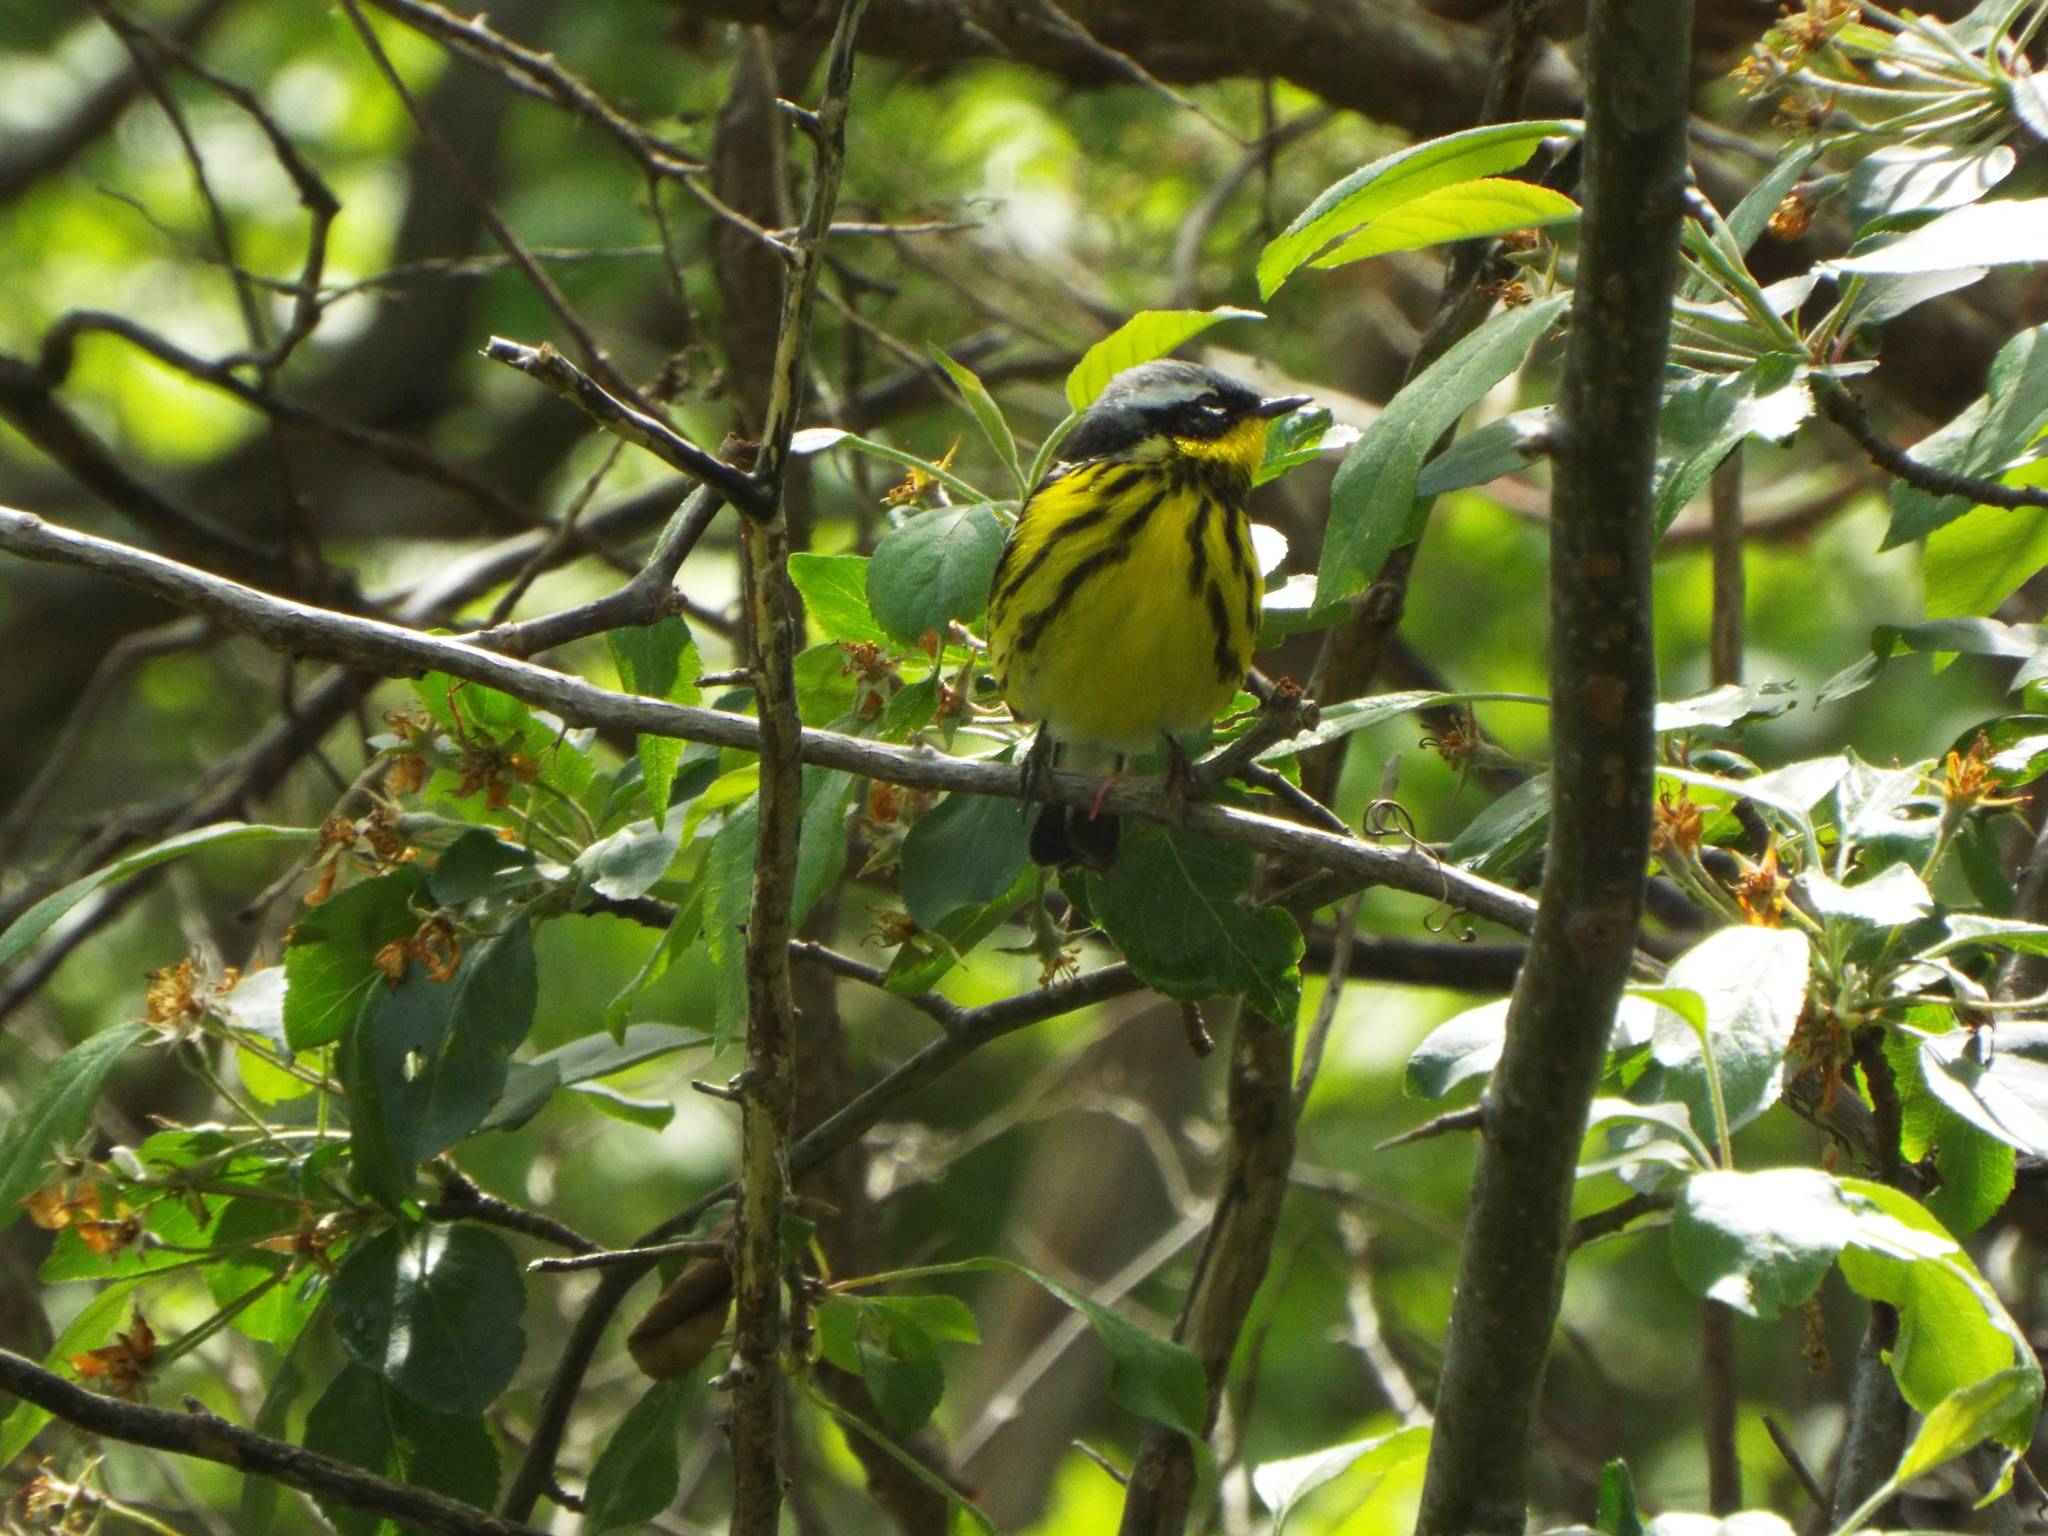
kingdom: Animalia
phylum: Chordata
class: Aves
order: Passeriformes
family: Parulidae
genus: Setophaga
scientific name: Setophaga magnolia
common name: Magnolia warbler
